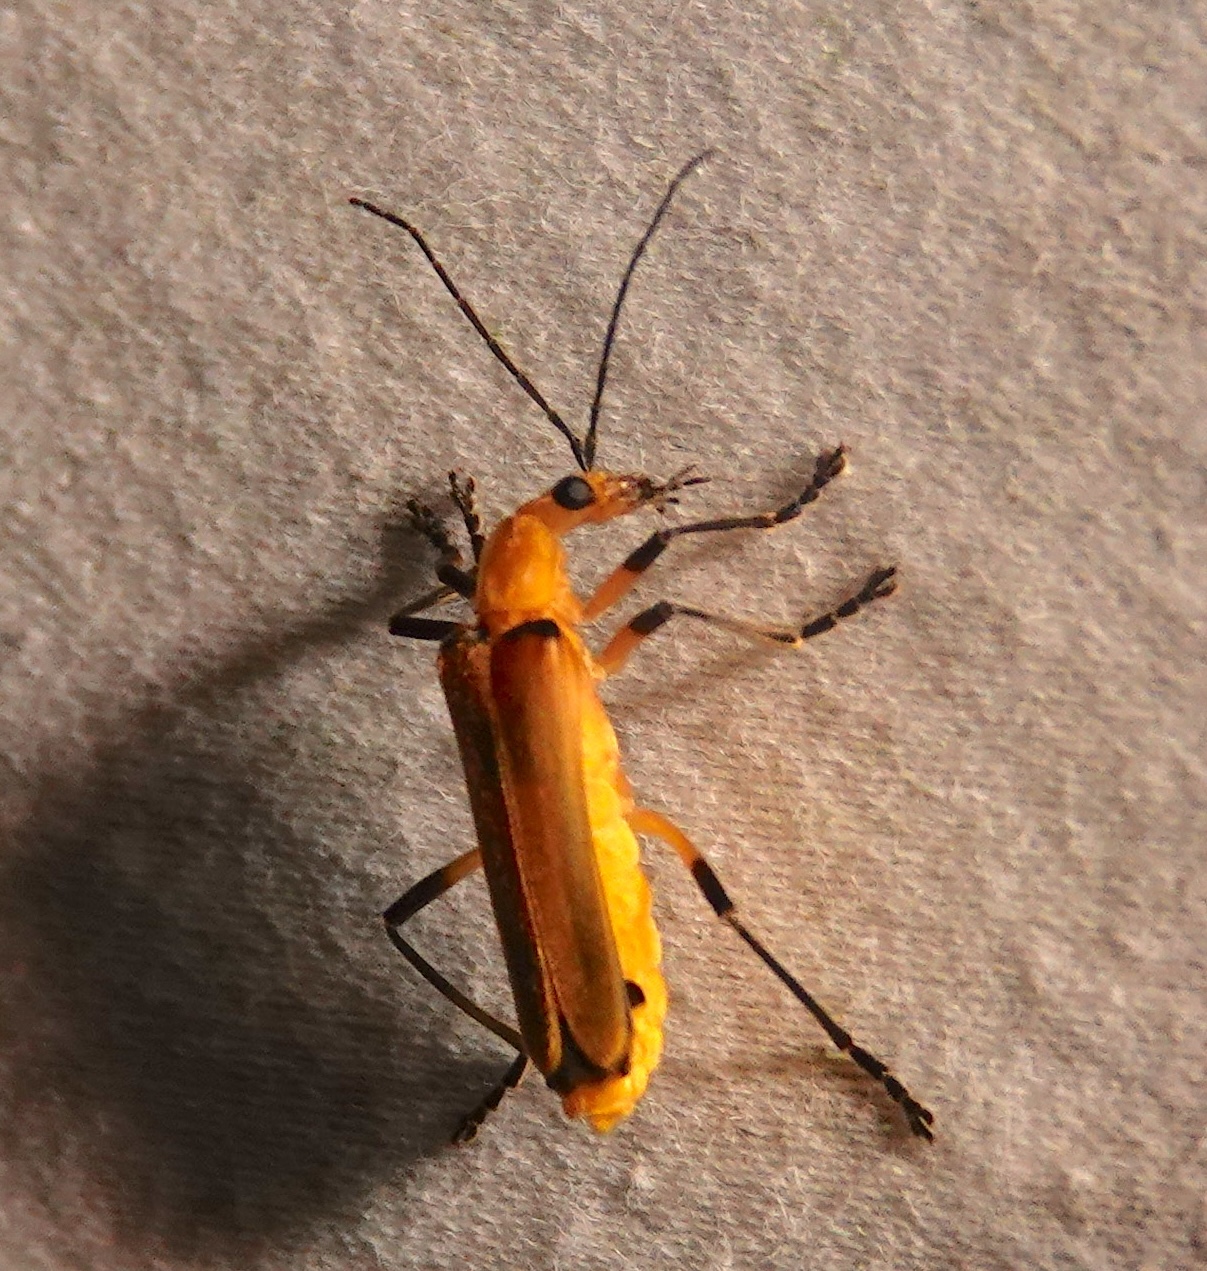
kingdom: Animalia
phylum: Arthropoda
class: Insecta
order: Coleoptera
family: Cantharidae
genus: Chauliognathus
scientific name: Chauliognathus
